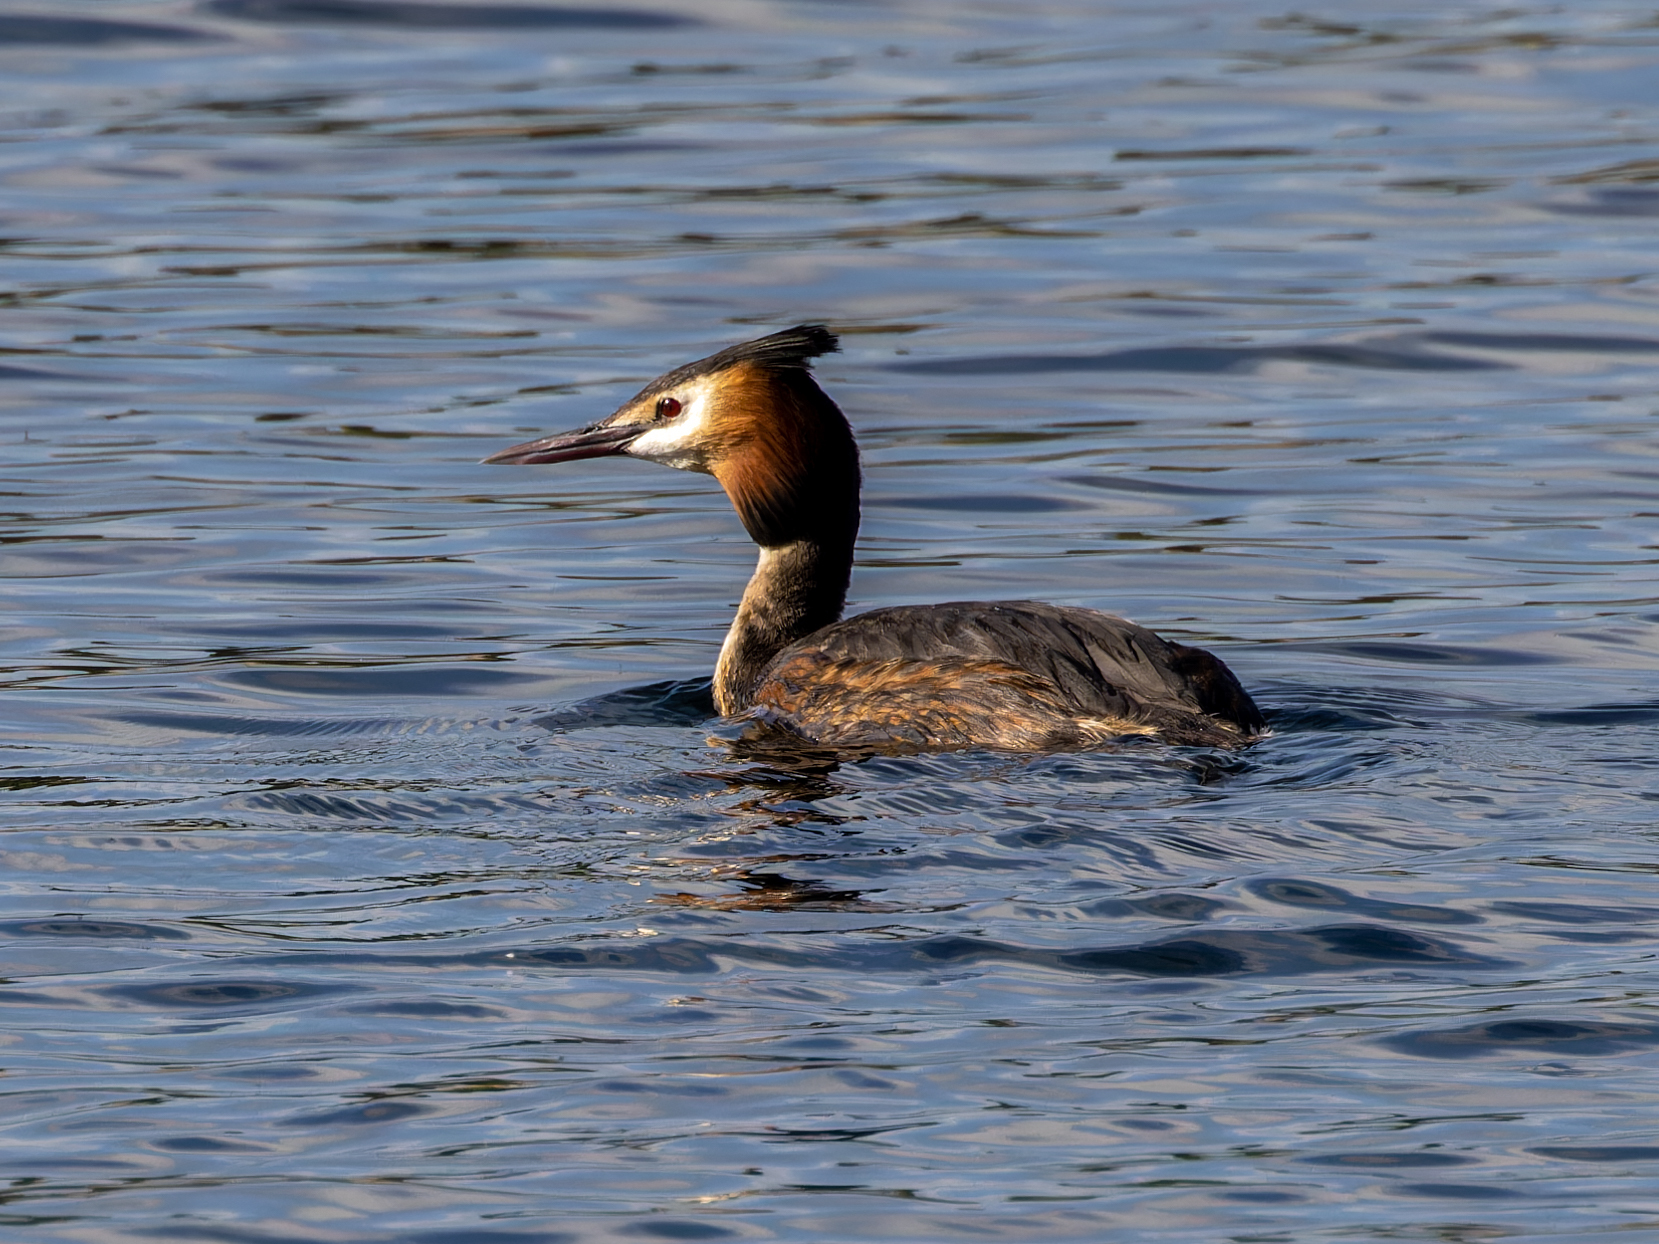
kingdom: Animalia
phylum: Chordata
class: Aves
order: Podicipediformes
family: Podicipedidae
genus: Podiceps
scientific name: Podiceps cristatus
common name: Great crested grebe
